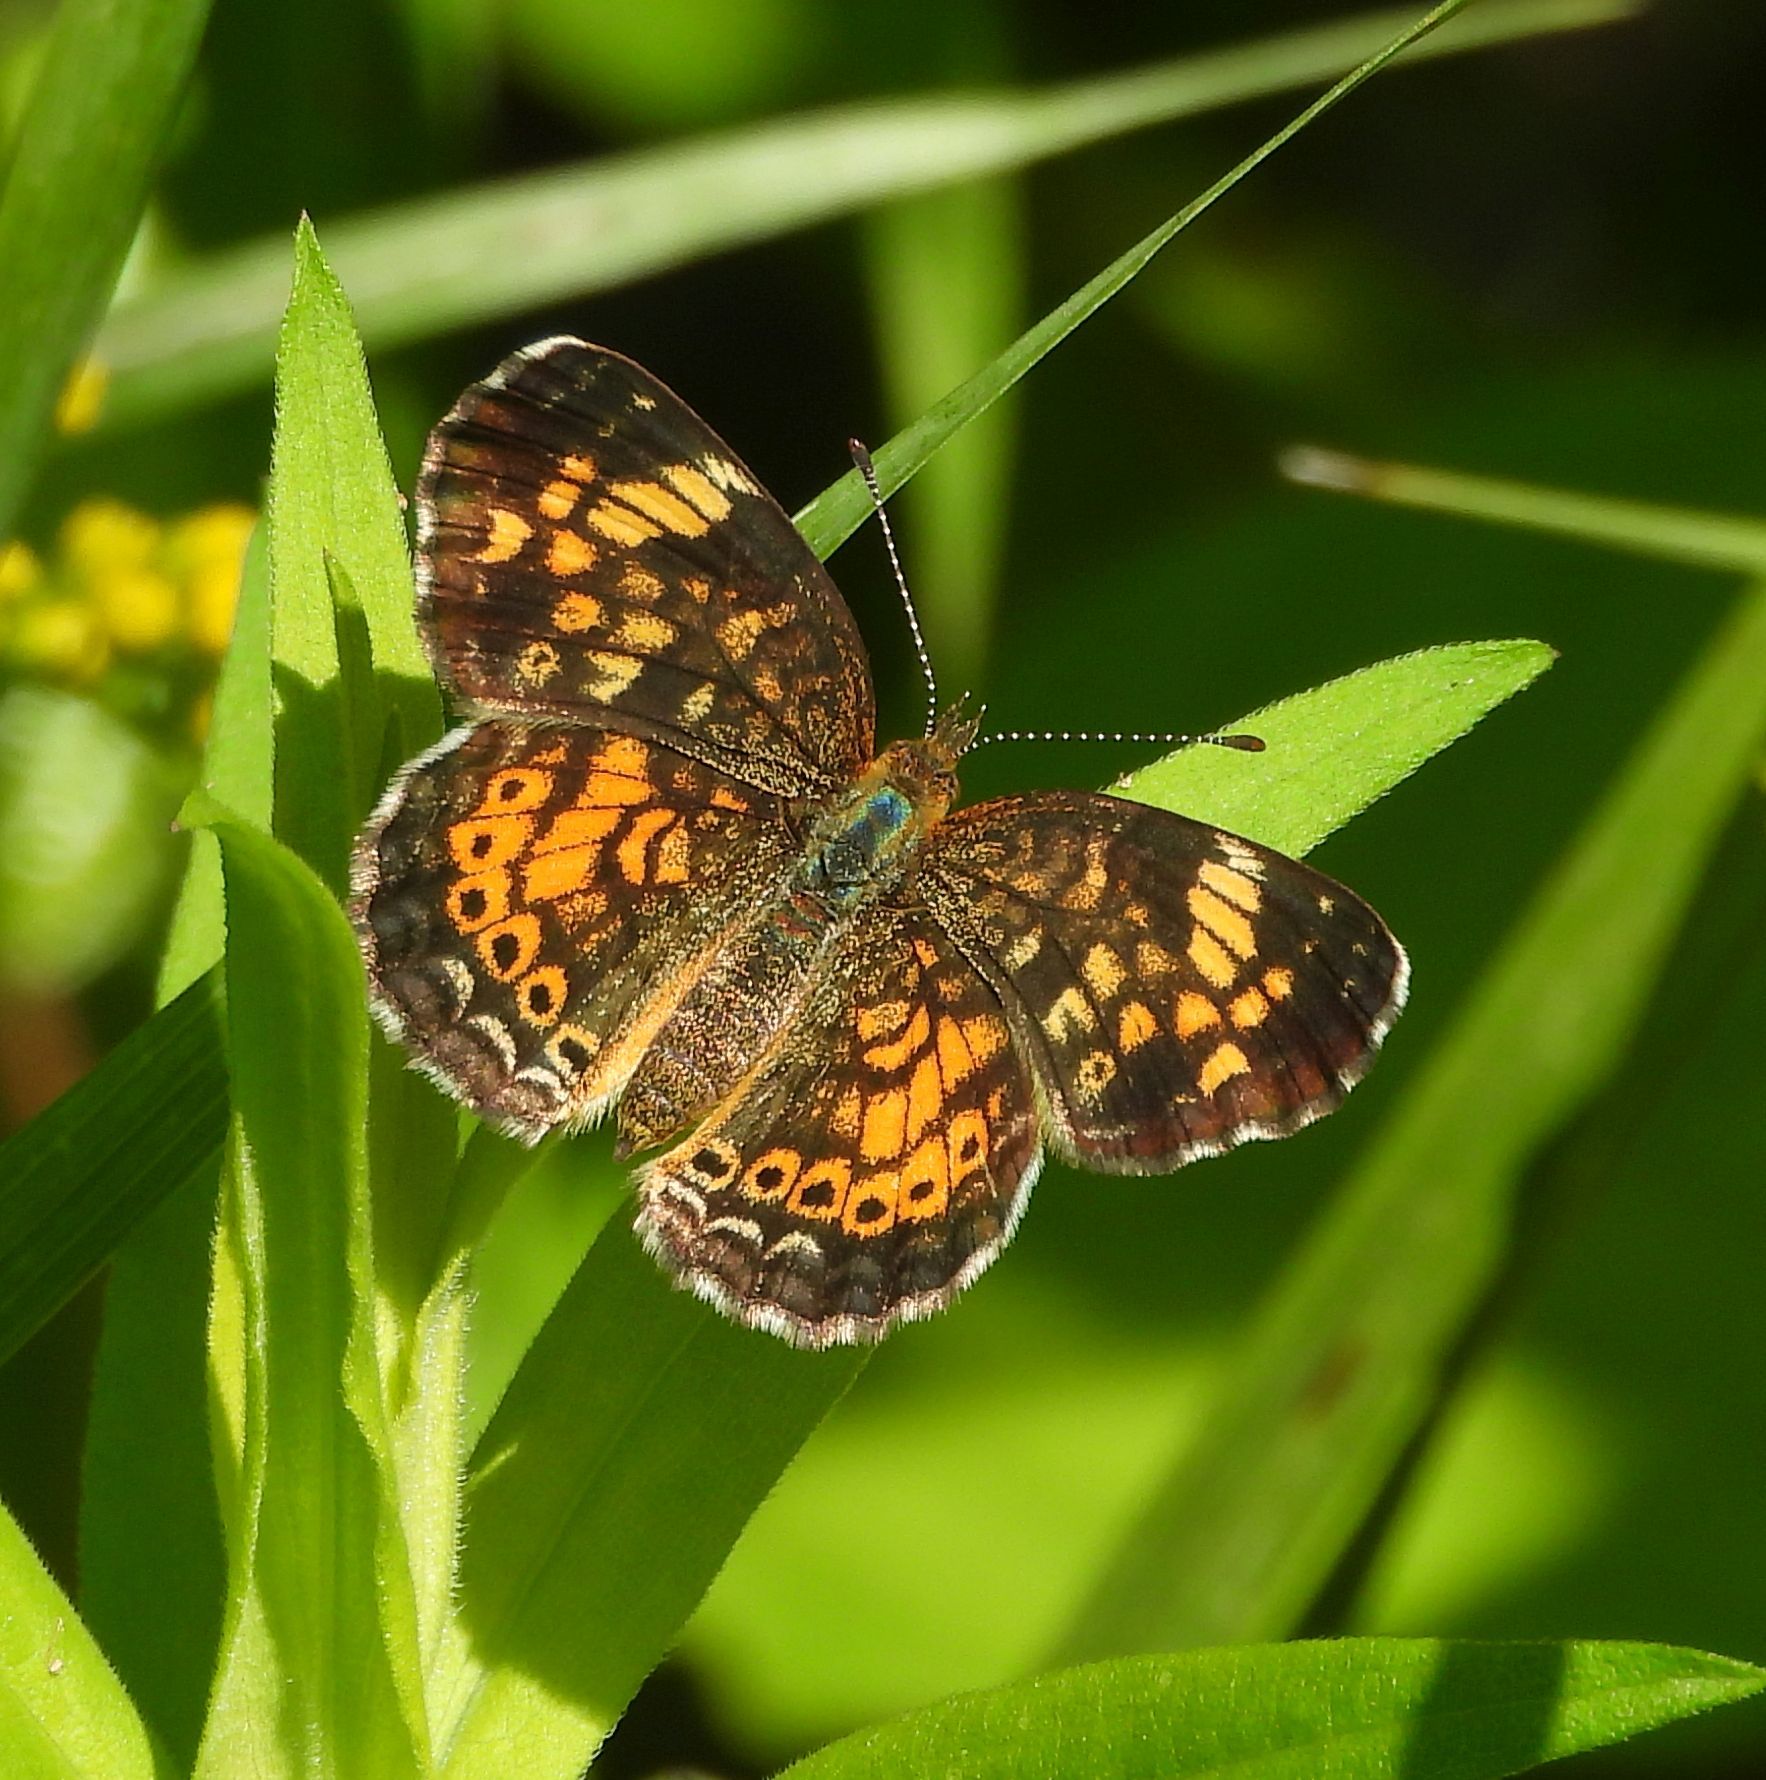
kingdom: Animalia
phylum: Arthropoda
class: Insecta
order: Lepidoptera
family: Nymphalidae
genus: Phyciodes
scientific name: Phyciodes tharos
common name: Pearl crescent
